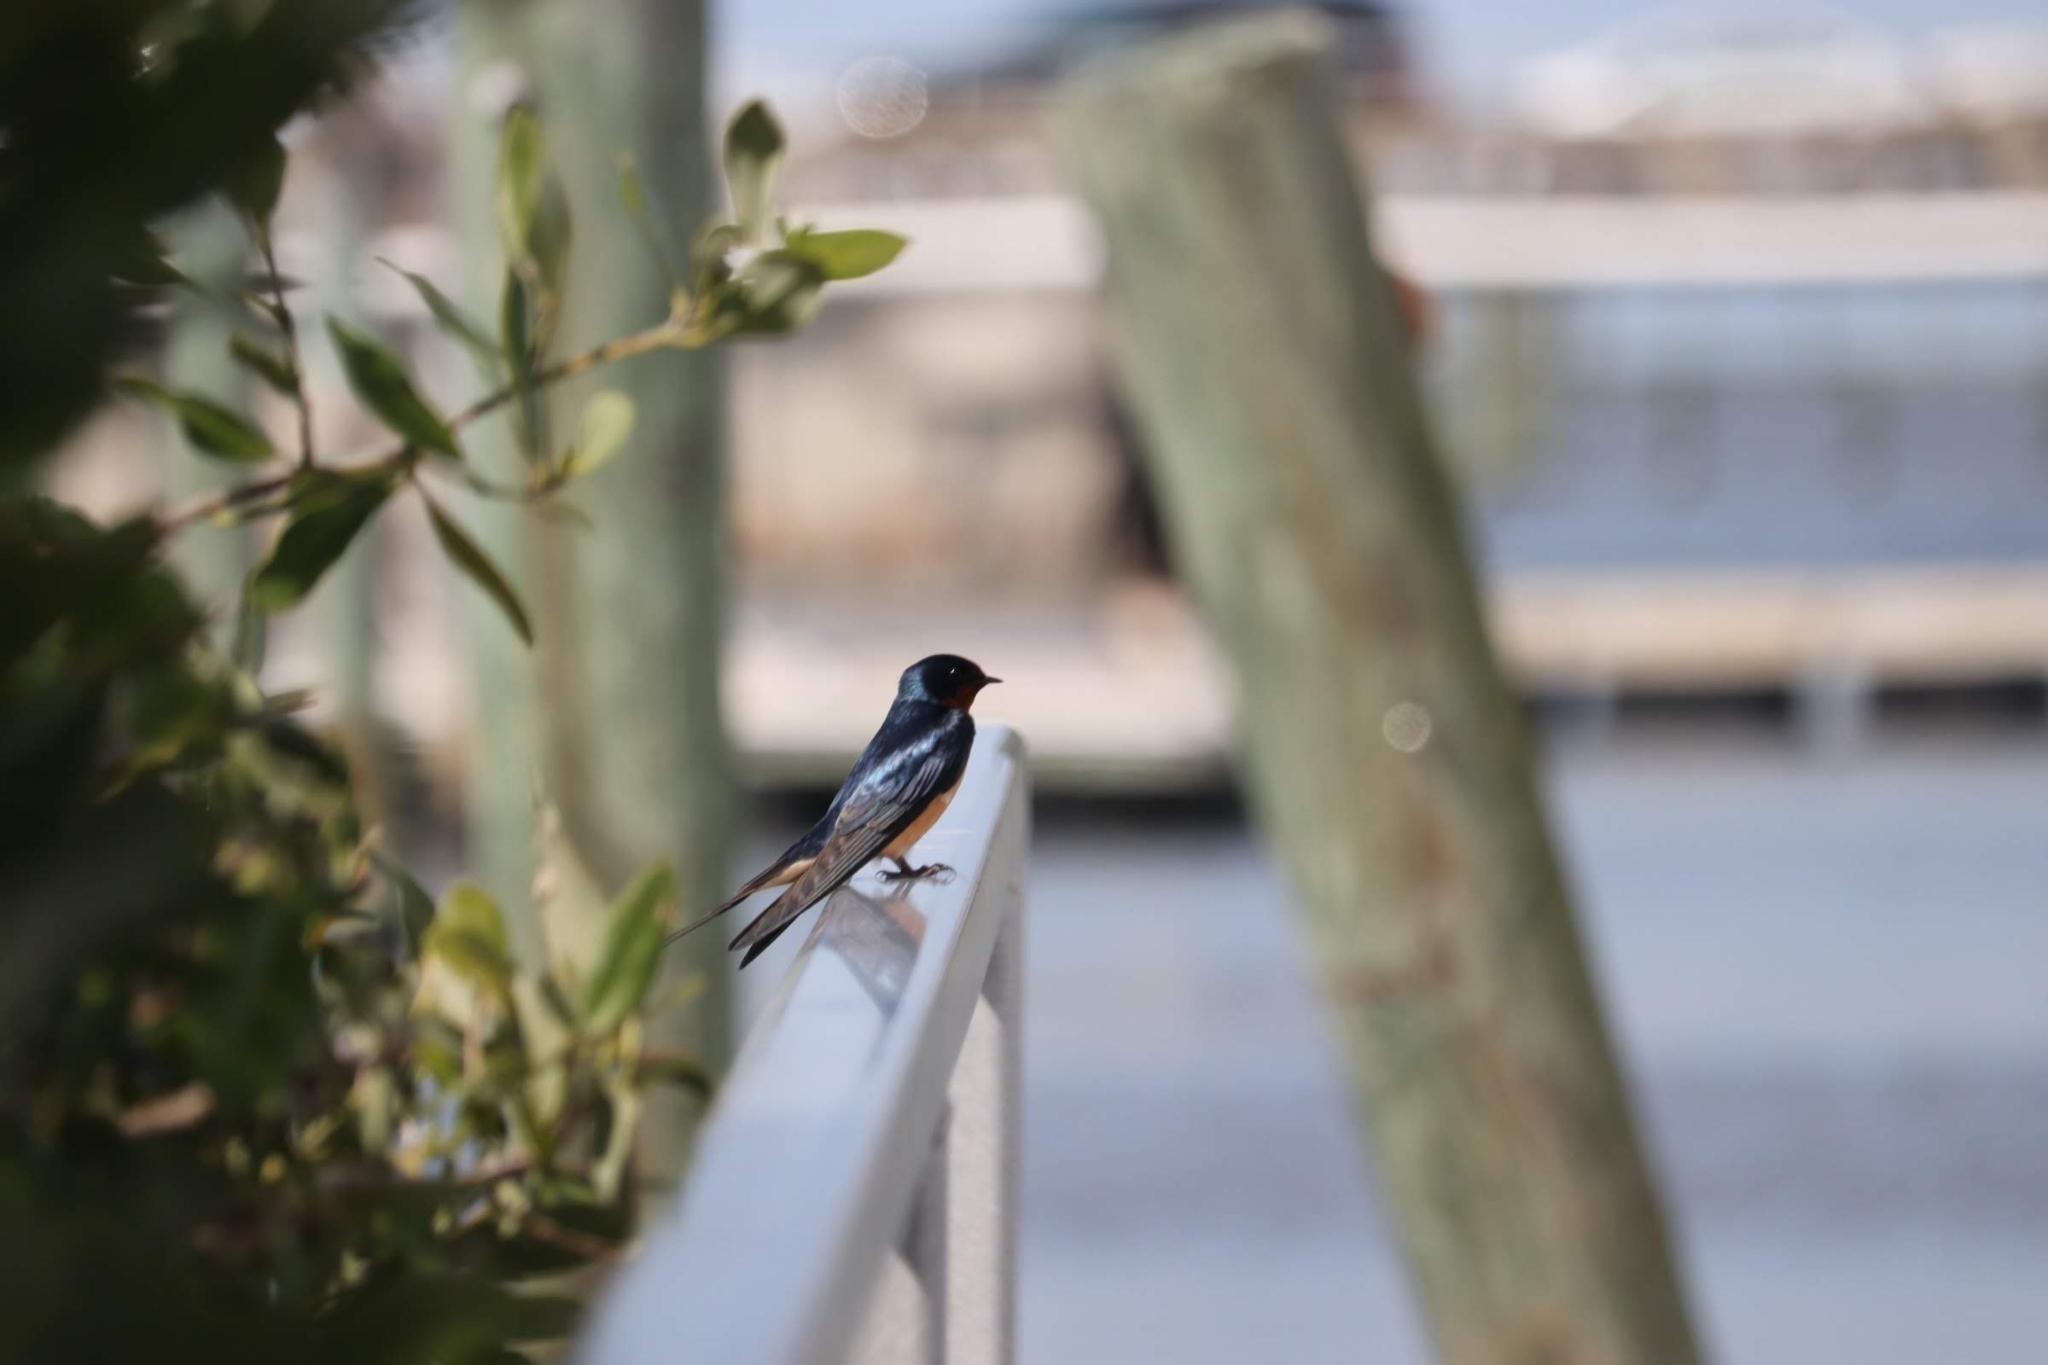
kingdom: Animalia
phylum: Chordata
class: Aves
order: Passeriformes
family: Hirundinidae
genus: Hirundo
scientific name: Hirundo rustica
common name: Barn swallow
